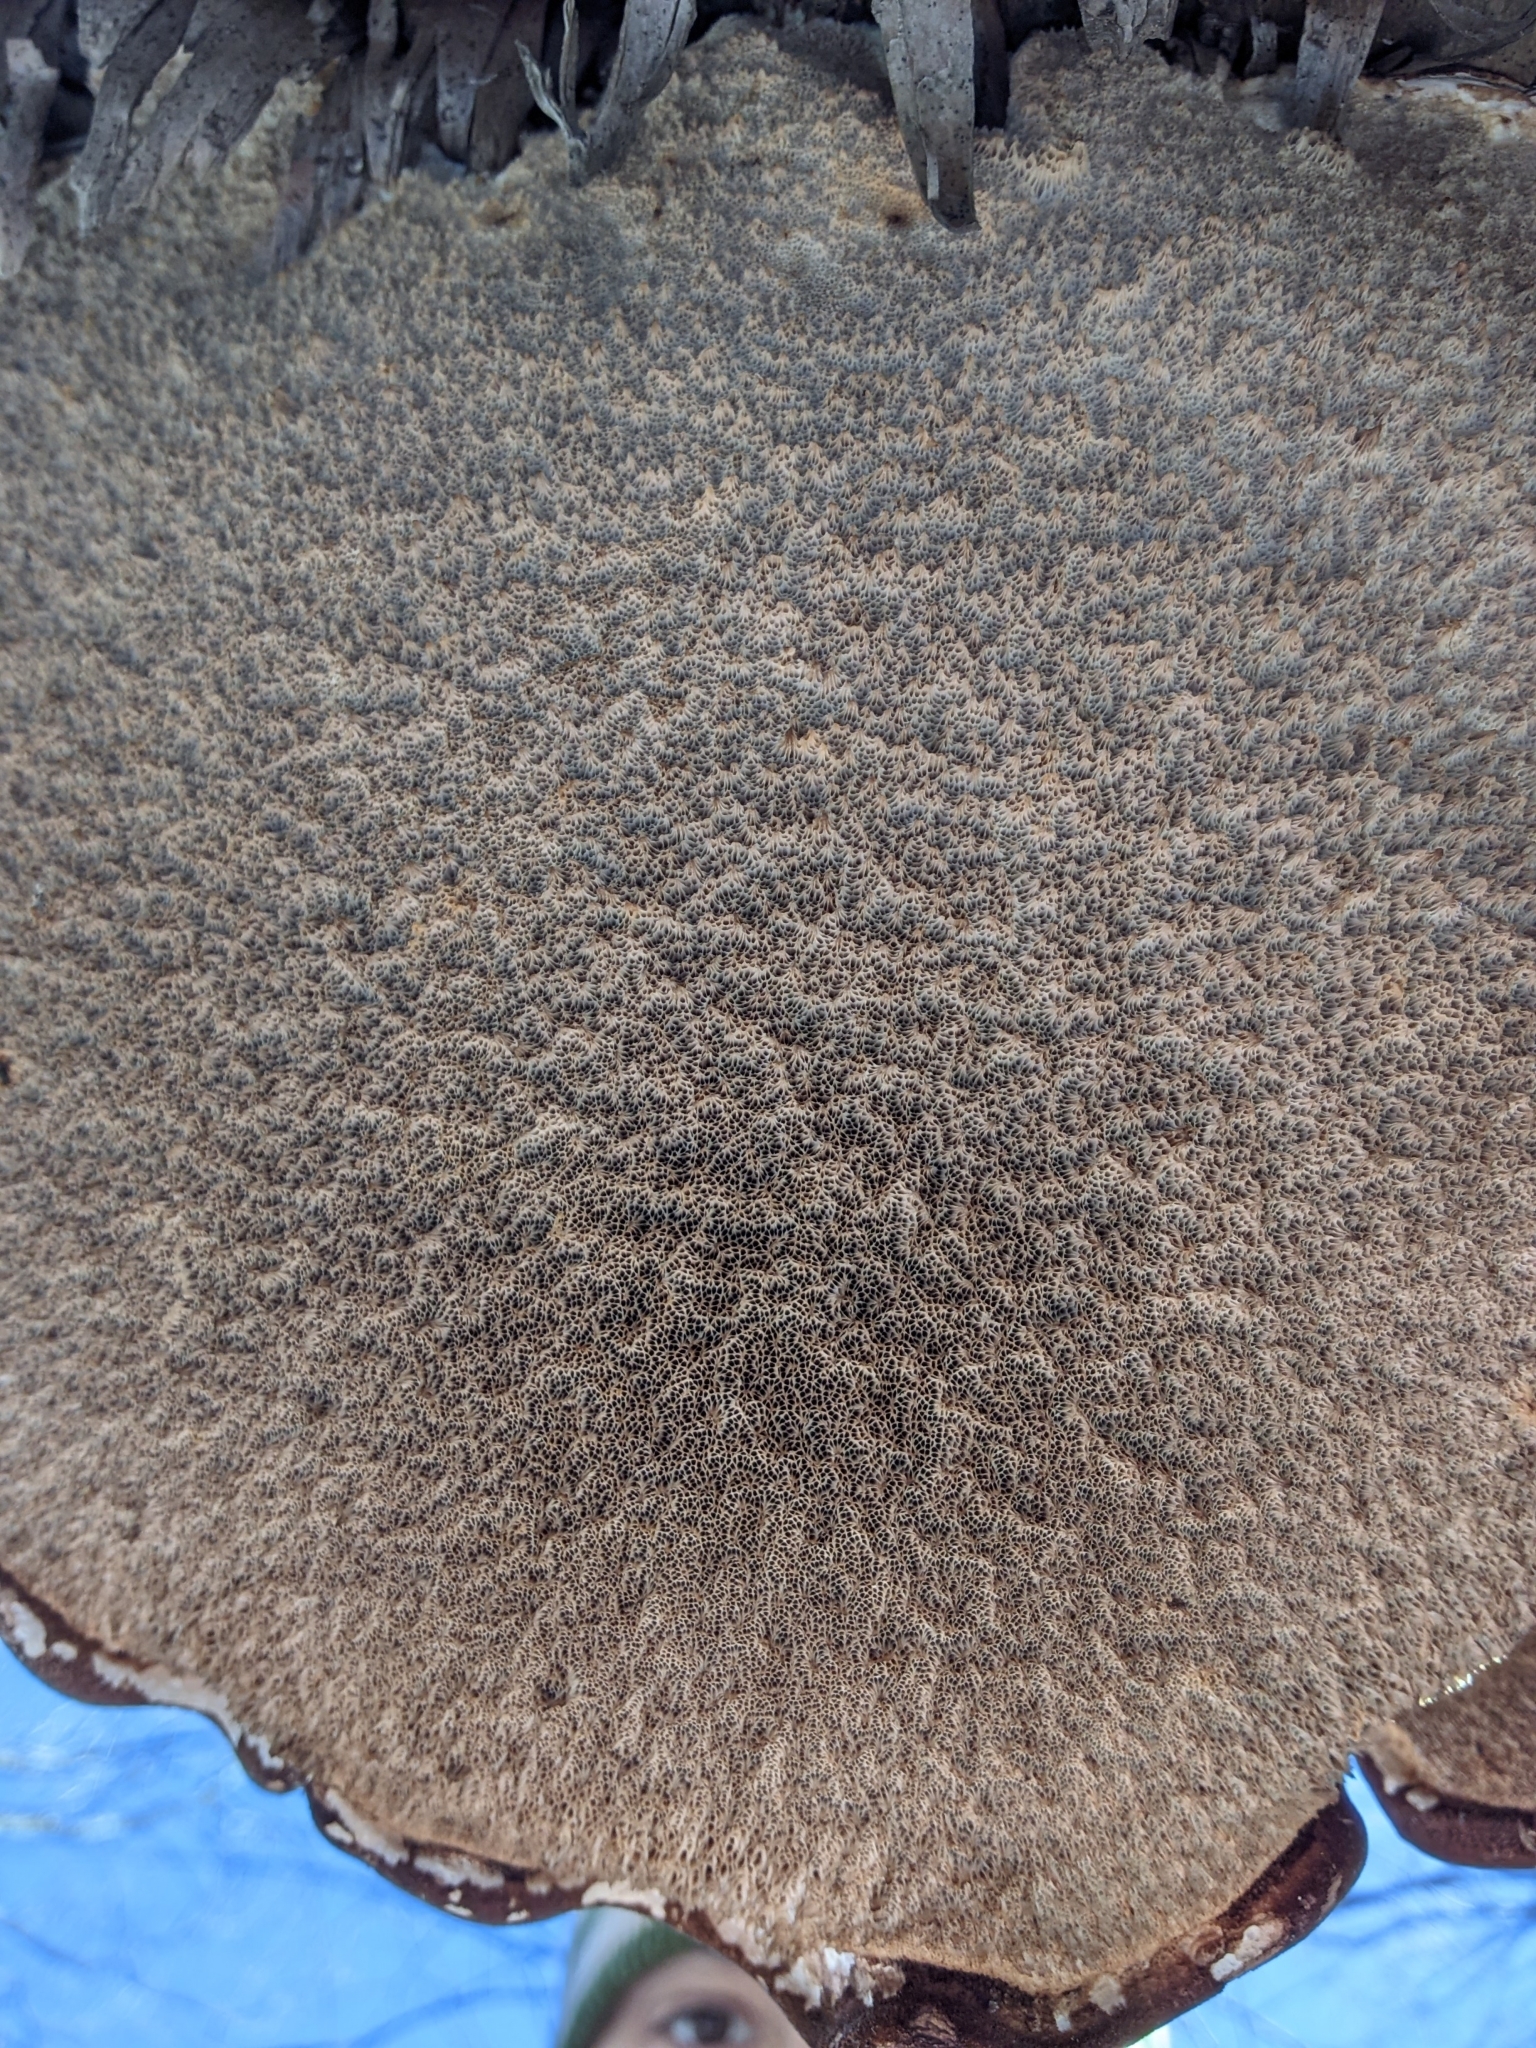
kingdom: Fungi
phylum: Basidiomycota
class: Agaricomycetes
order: Polyporales
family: Fomitopsidaceae
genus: Fomitopsis
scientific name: Fomitopsis betulina
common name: Birch polypore
